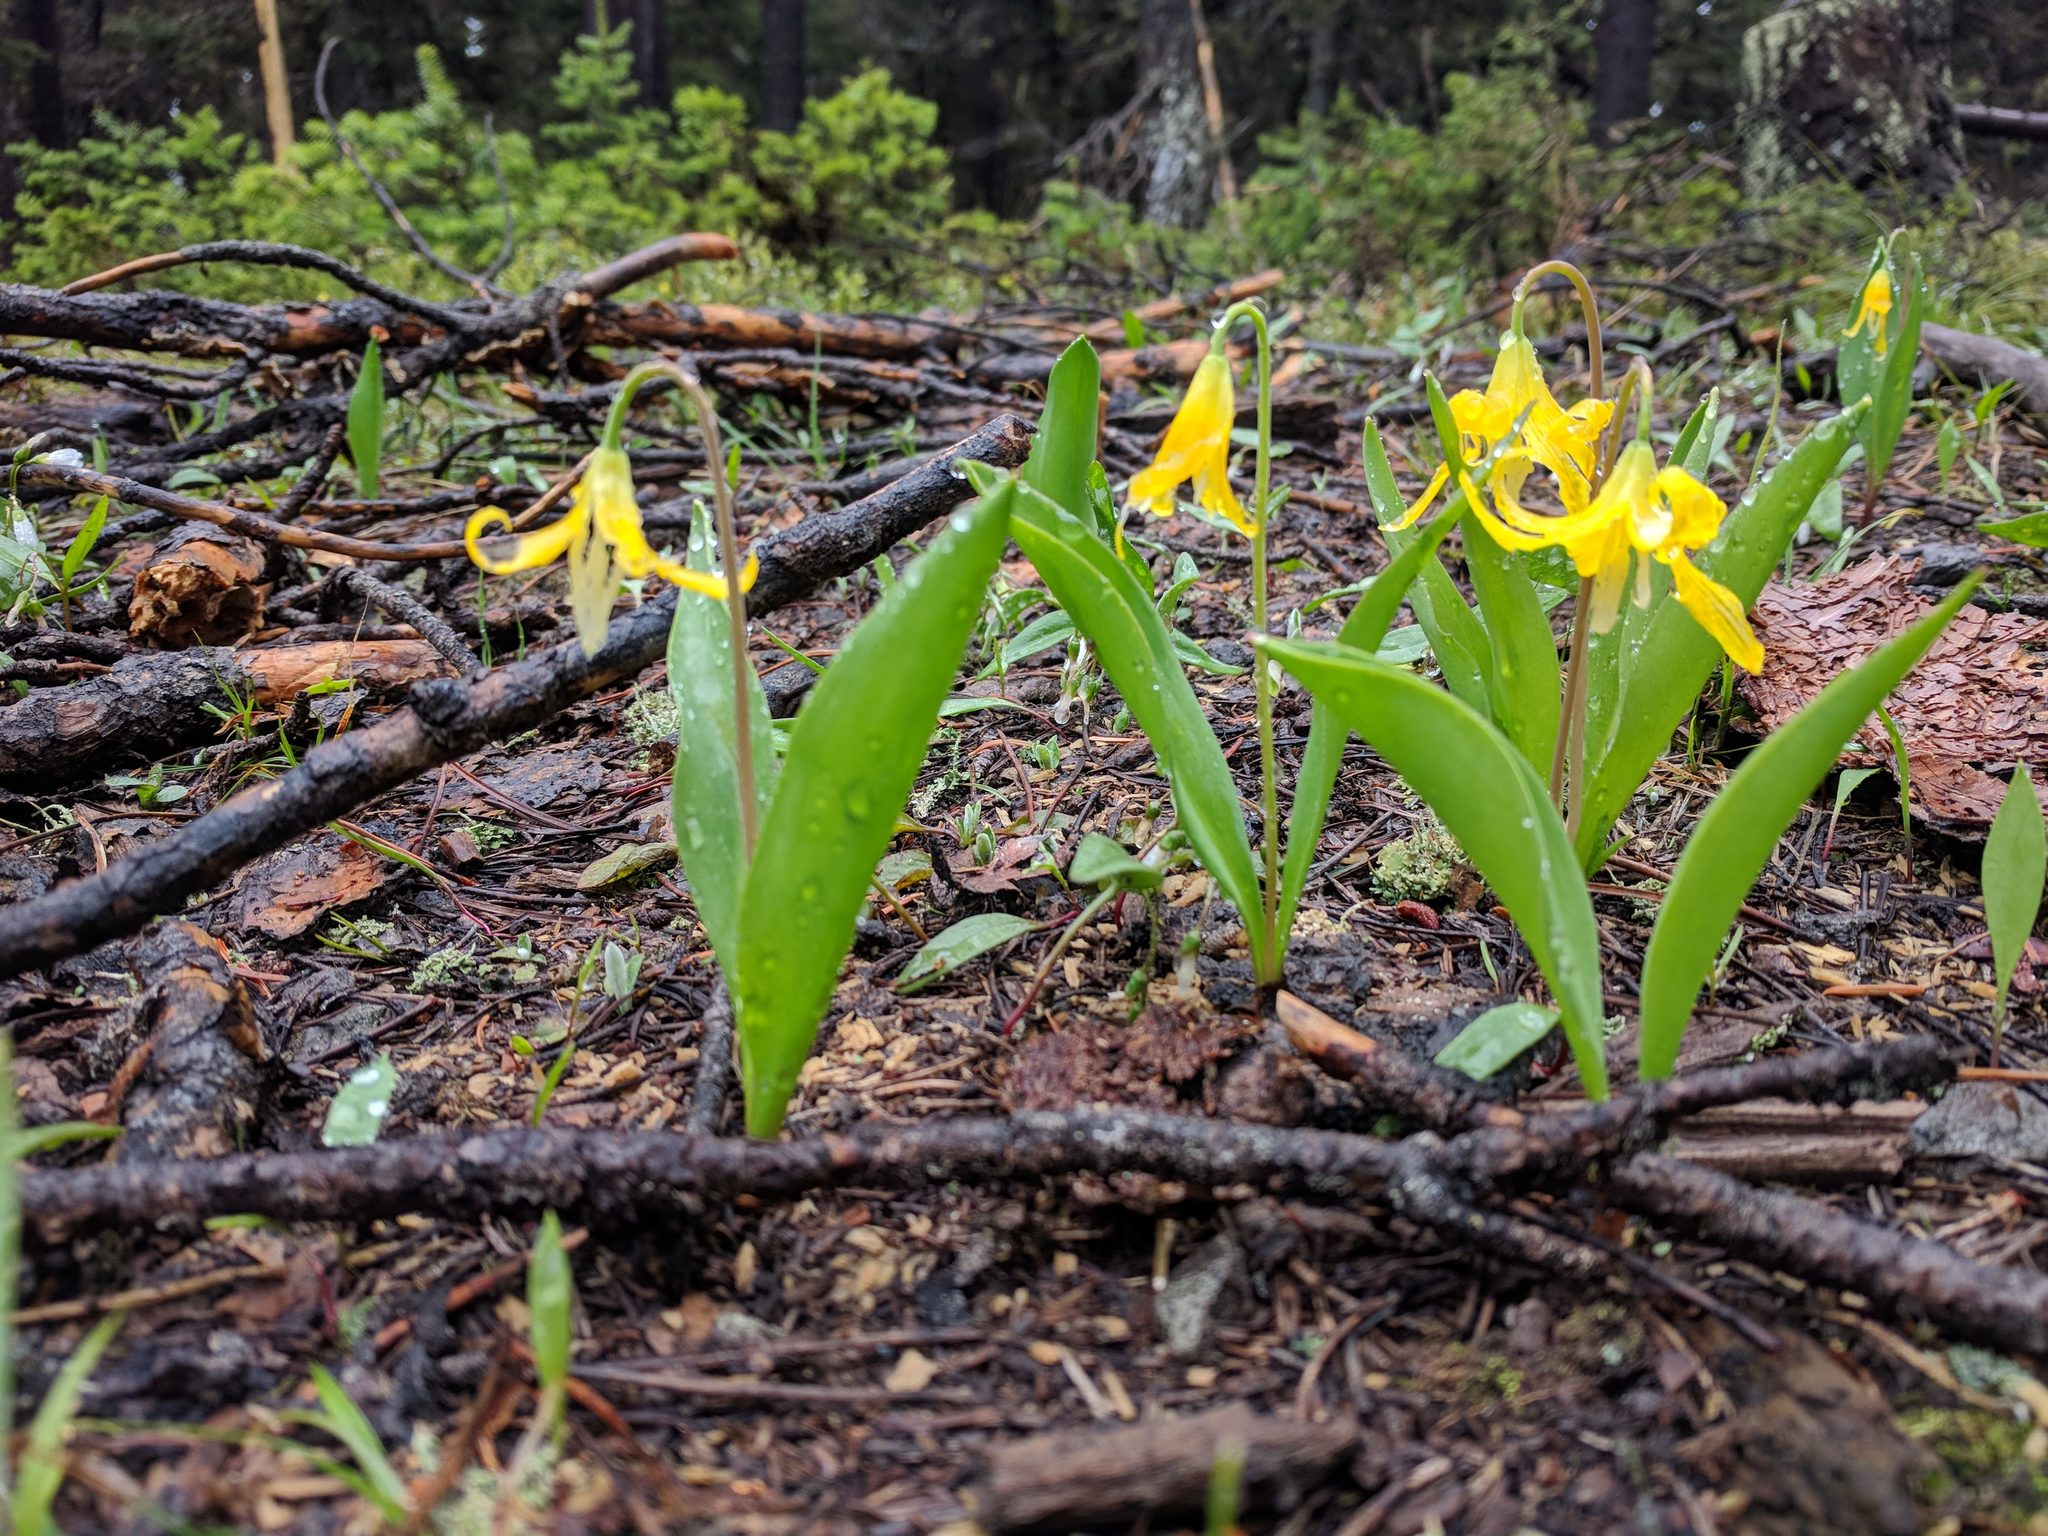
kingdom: Plantae
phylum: Tracheophyta
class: Liliopsida
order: Liliales
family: Liliaceae
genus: Erythronium
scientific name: Erythronium grandiflorum
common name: Avalanche-lily
